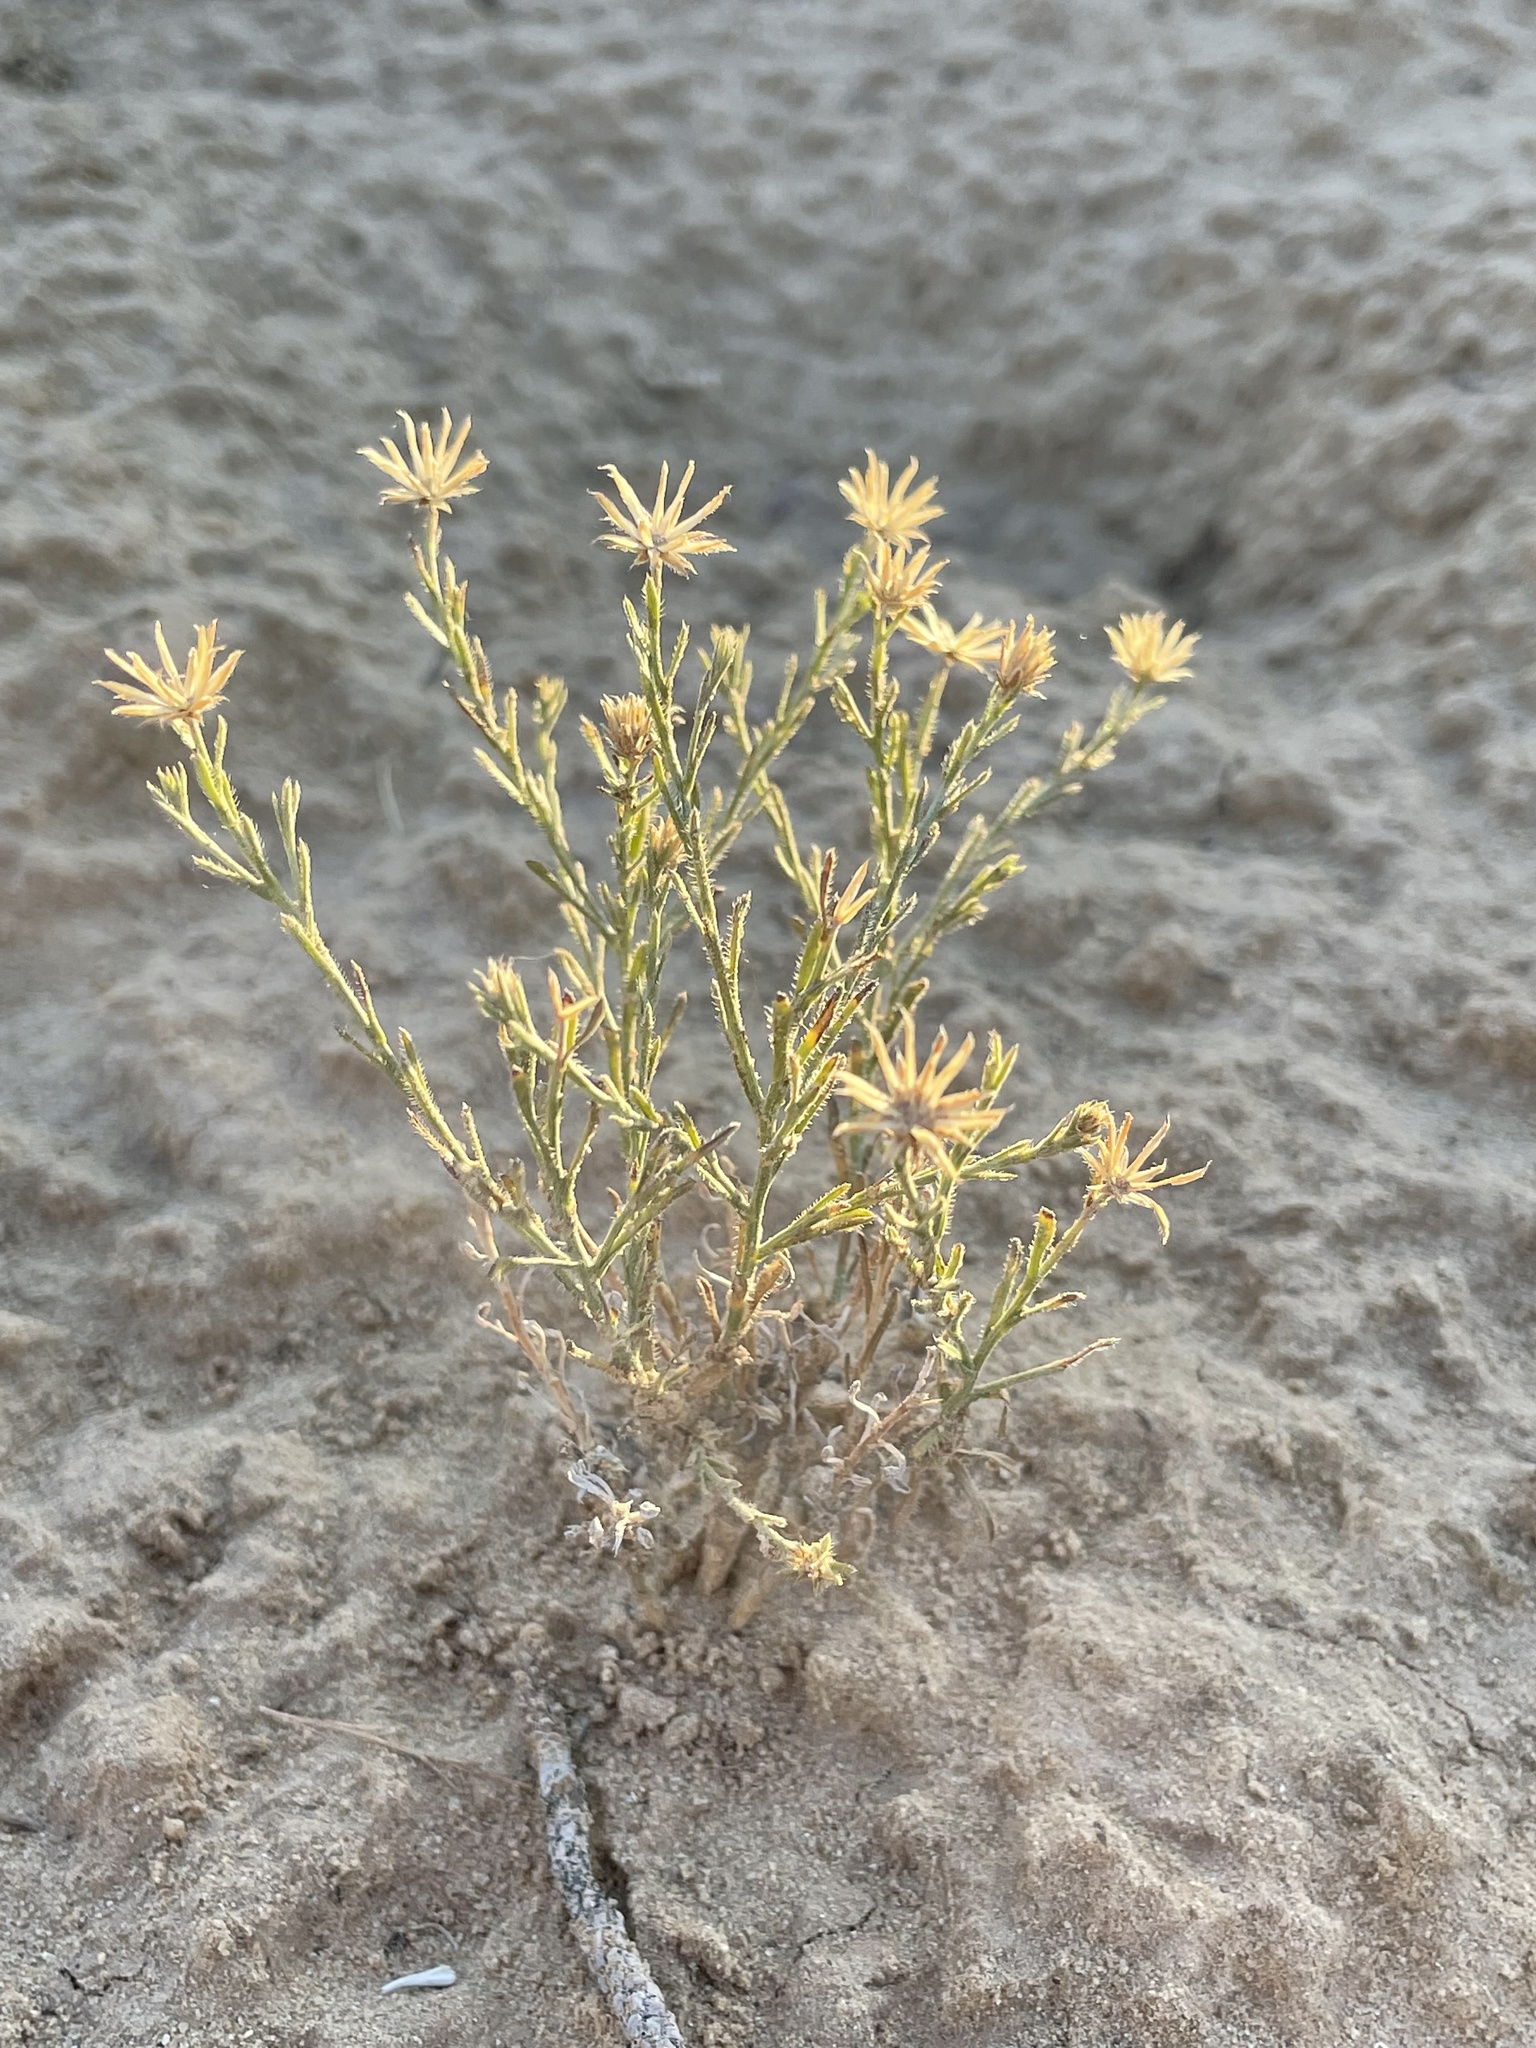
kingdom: Plantae
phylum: Tracheophyta
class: Magnoliopsida
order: Asterales
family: Asteraceae
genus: Chaetopappa
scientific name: Chaetopappa ericoides
